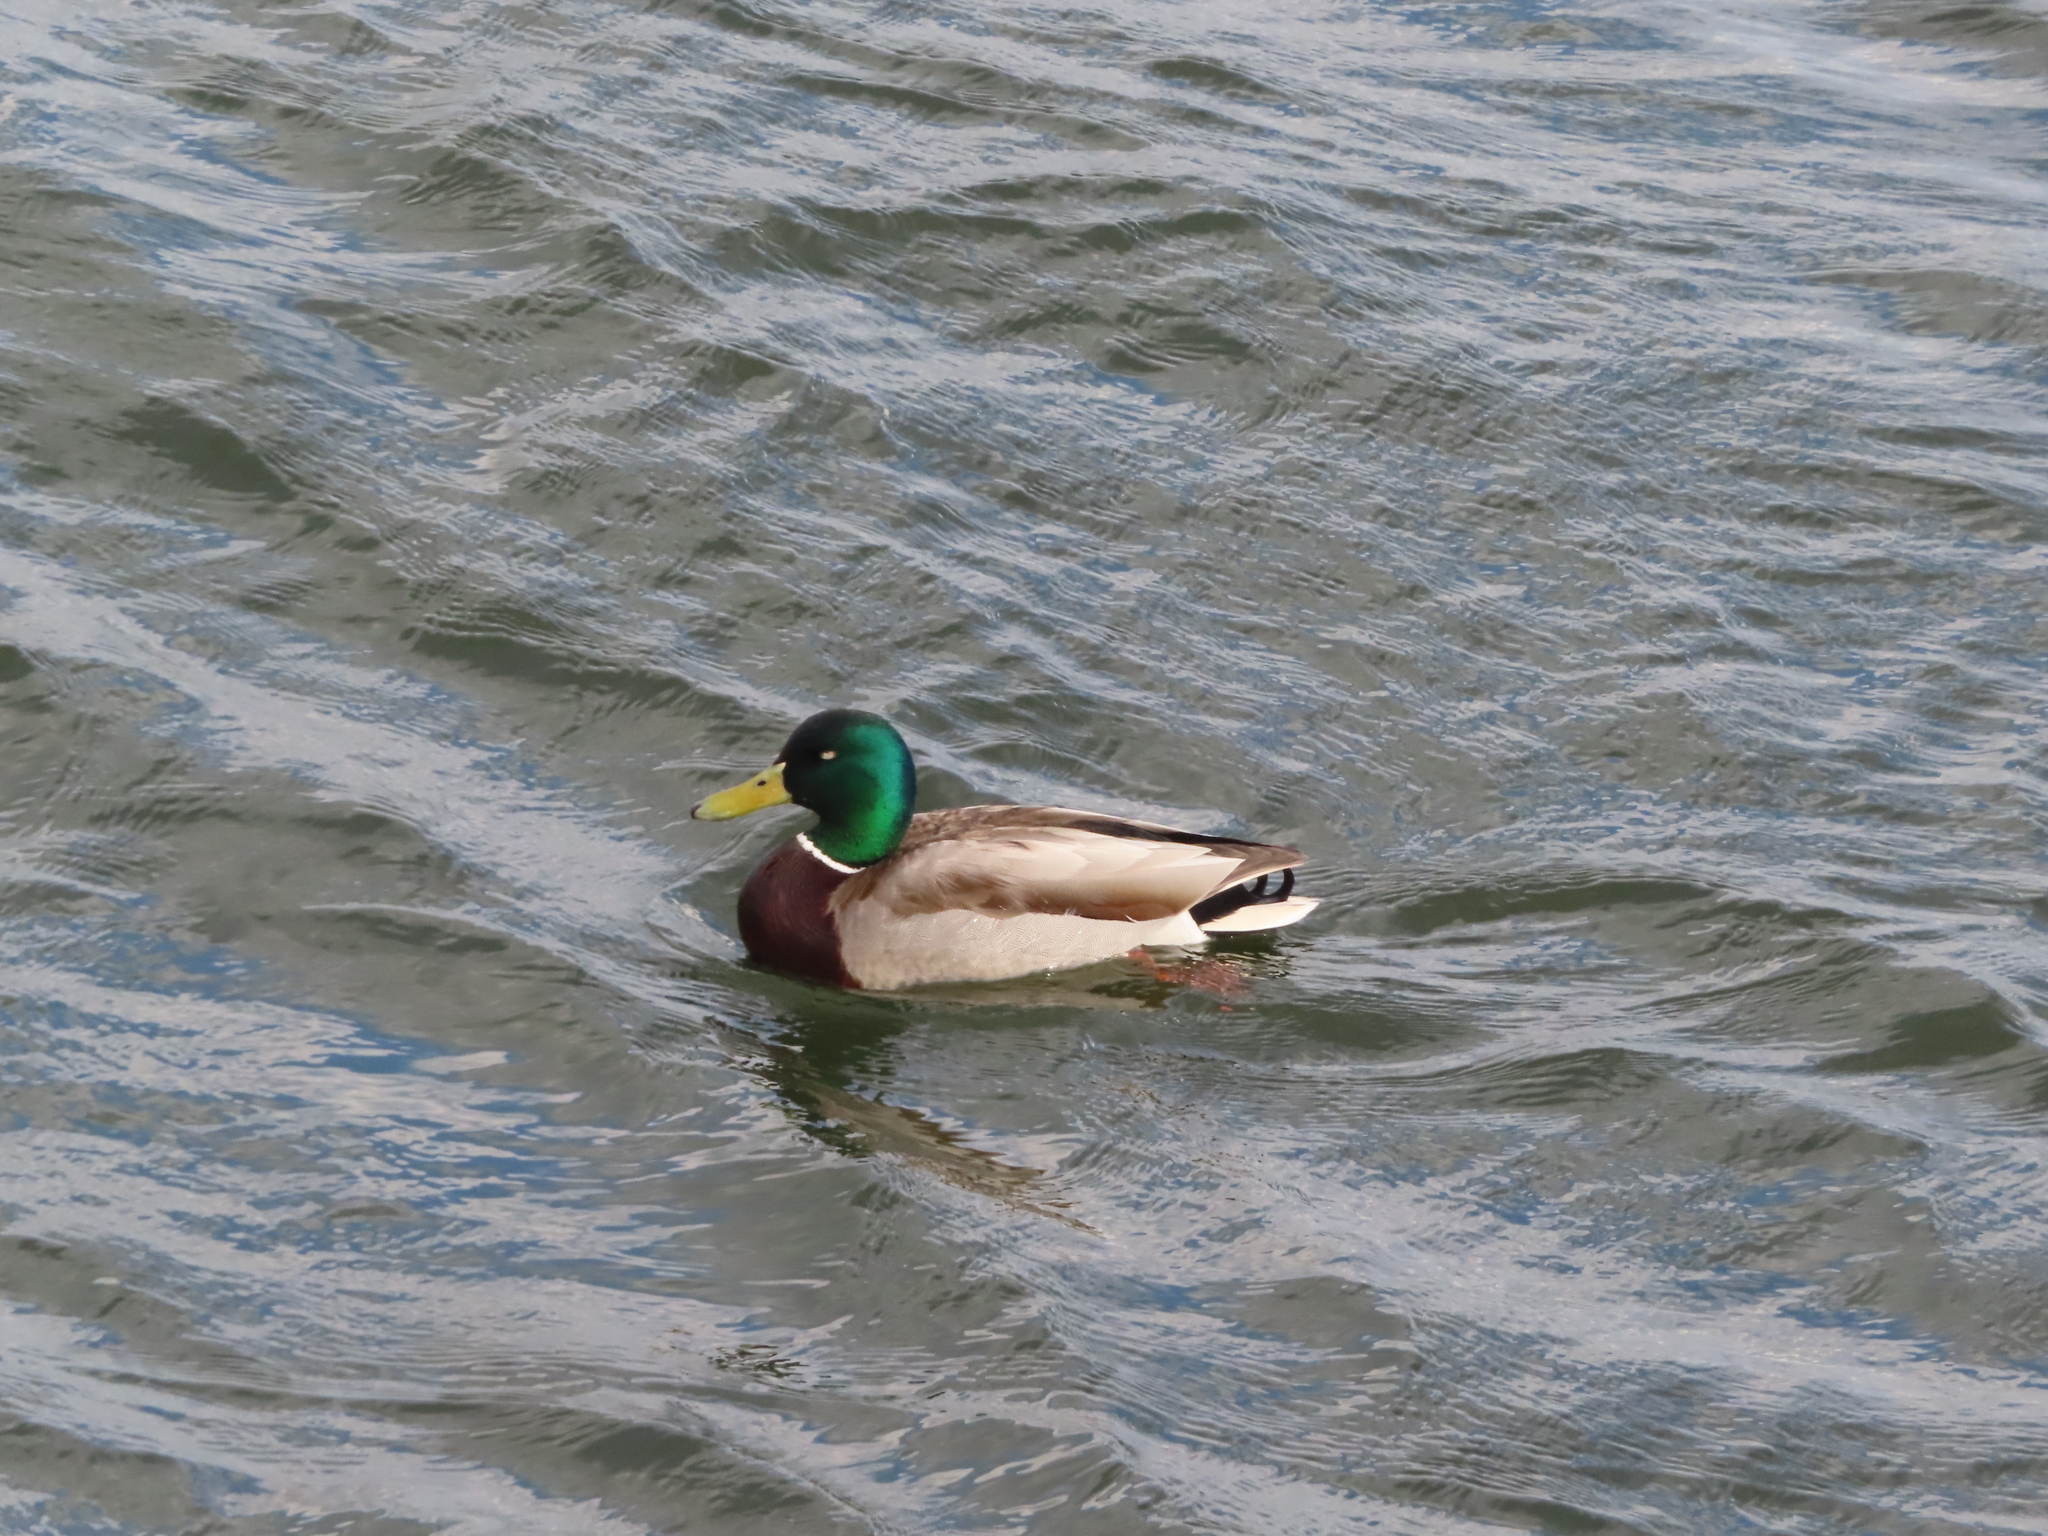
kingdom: Animalia
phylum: Chordata
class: Aves
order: Anseriformes
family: Anatidae
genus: Anas
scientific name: Anas platyrhynchos
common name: Mallard
